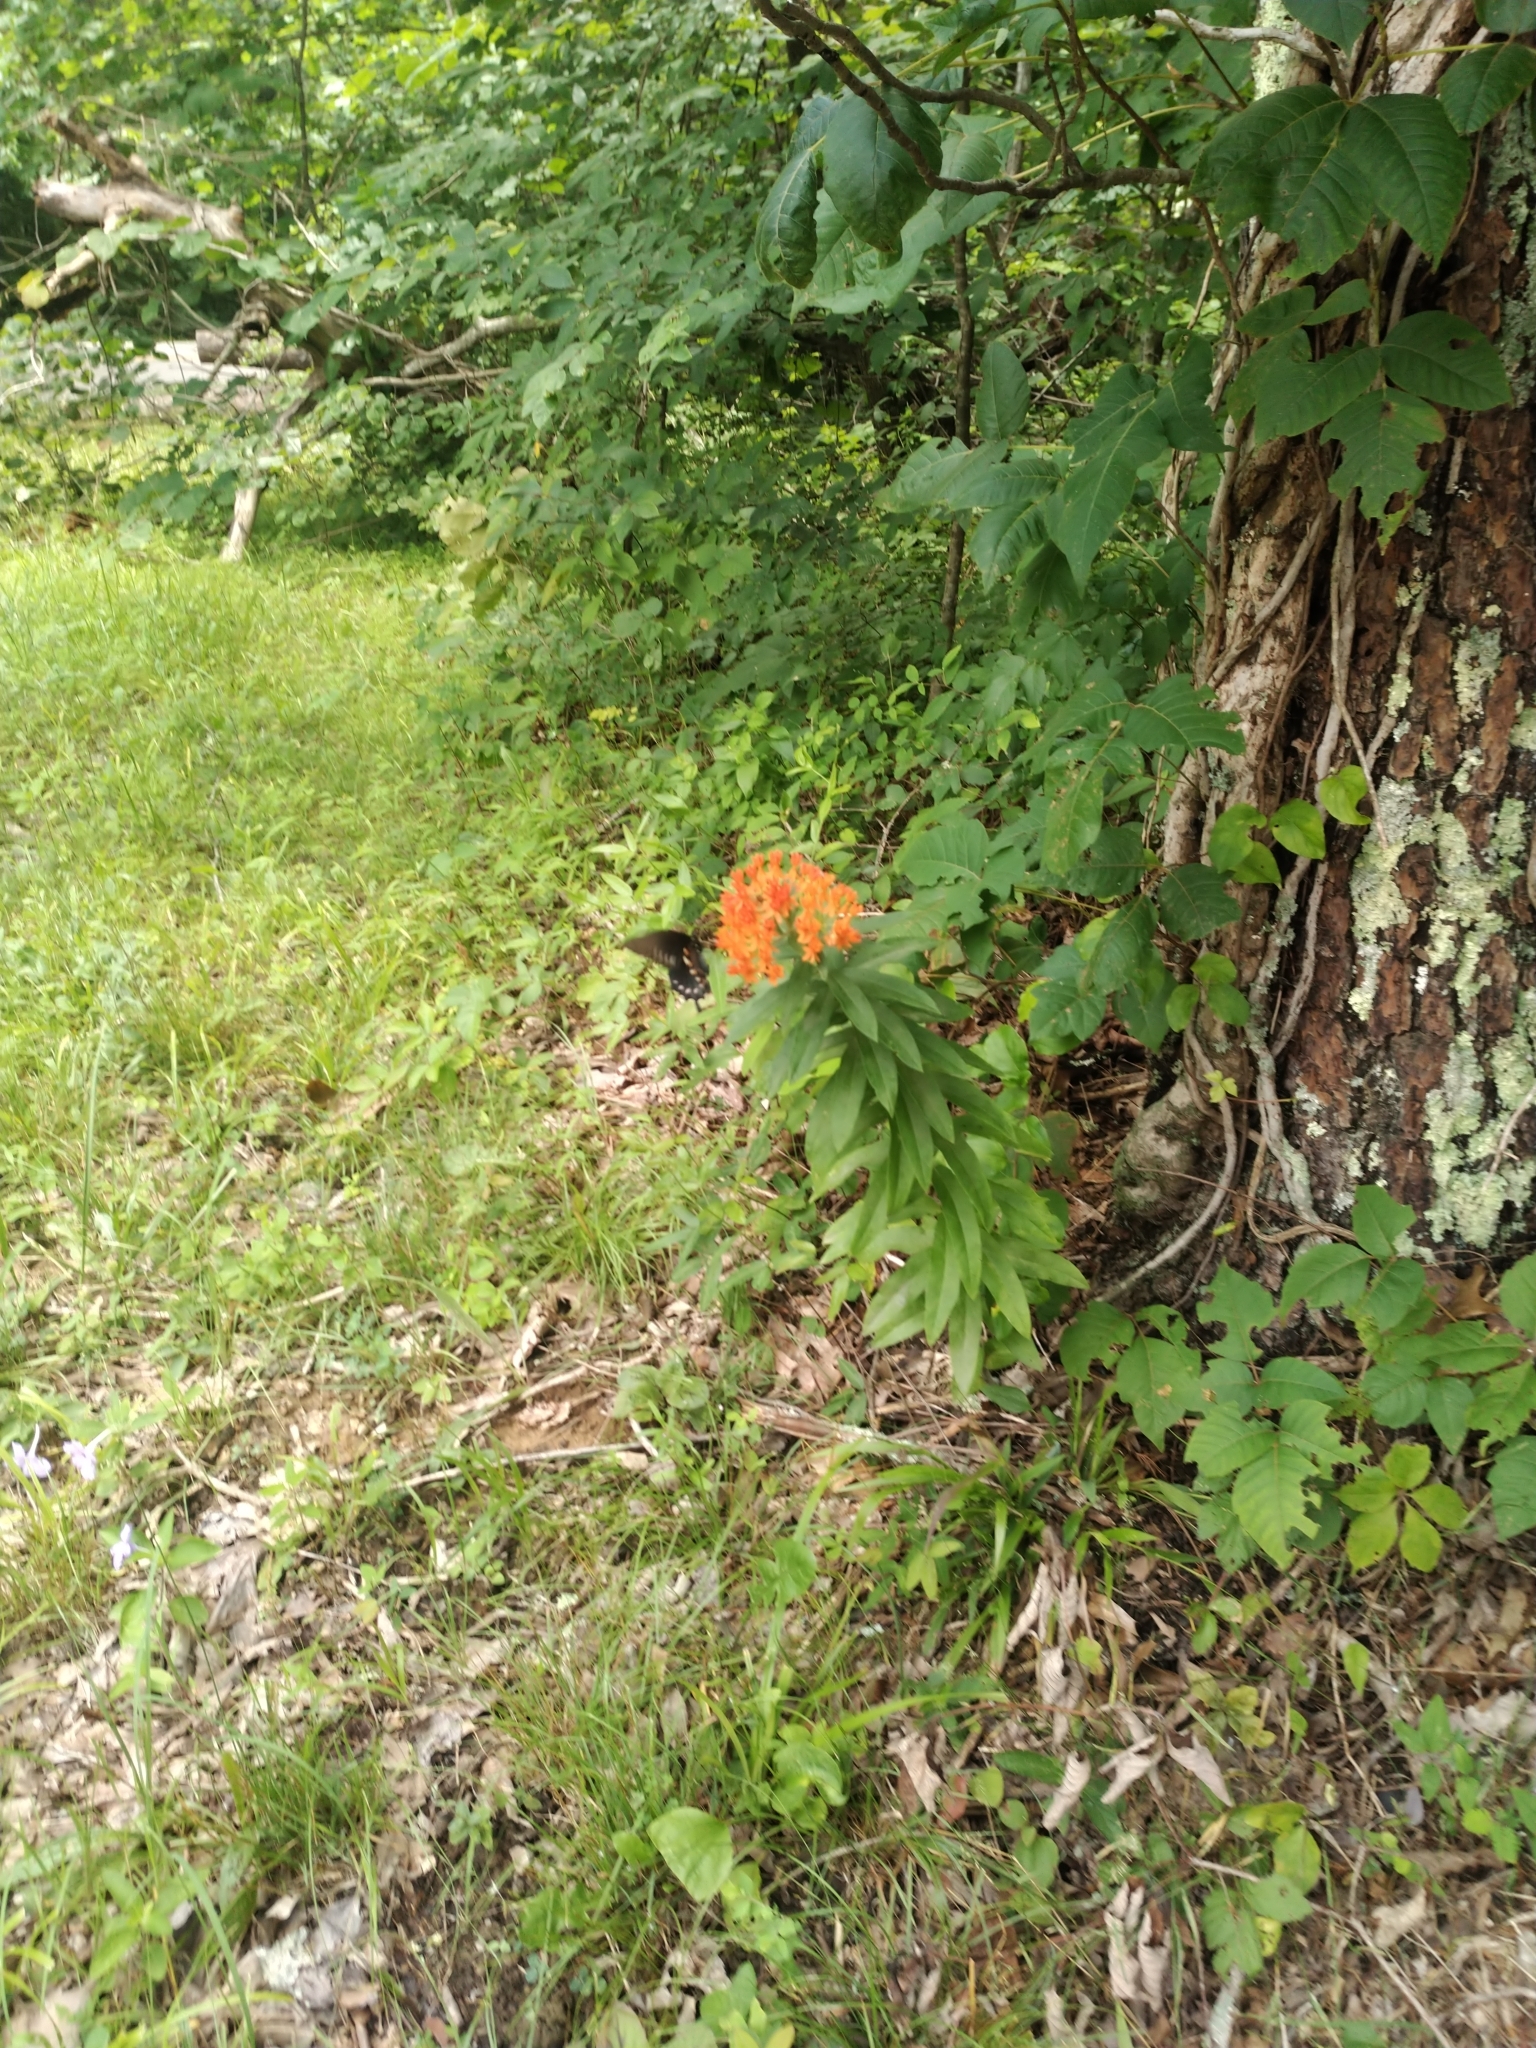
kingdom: Plantae
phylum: Tracheophyta
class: Magnoliopsida
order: Gentianales
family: Apocynaceae
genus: Asclepias
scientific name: Asclepias tuberosa
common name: Butterfly milkweed
